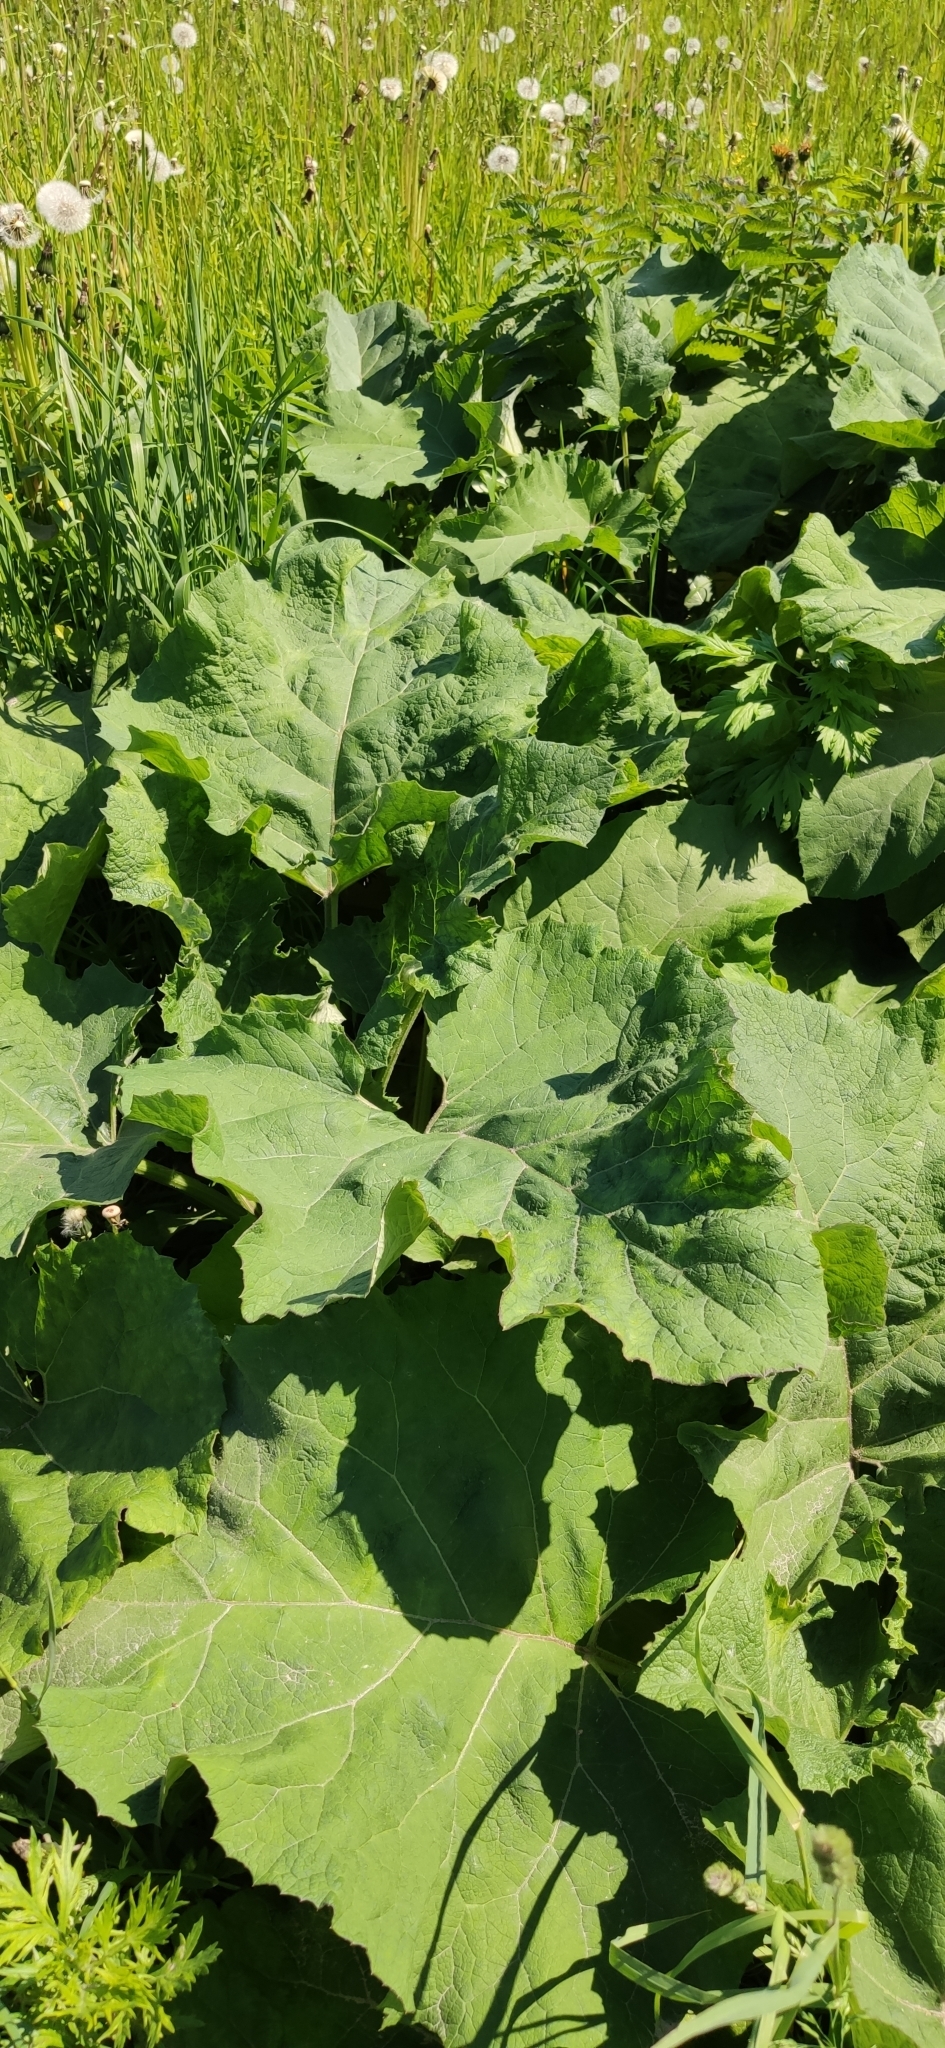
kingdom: Plantae
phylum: Tracheophyta
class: Magnoliopsida
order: Asterales
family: Asteraceae
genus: Arctium
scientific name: Arctium
